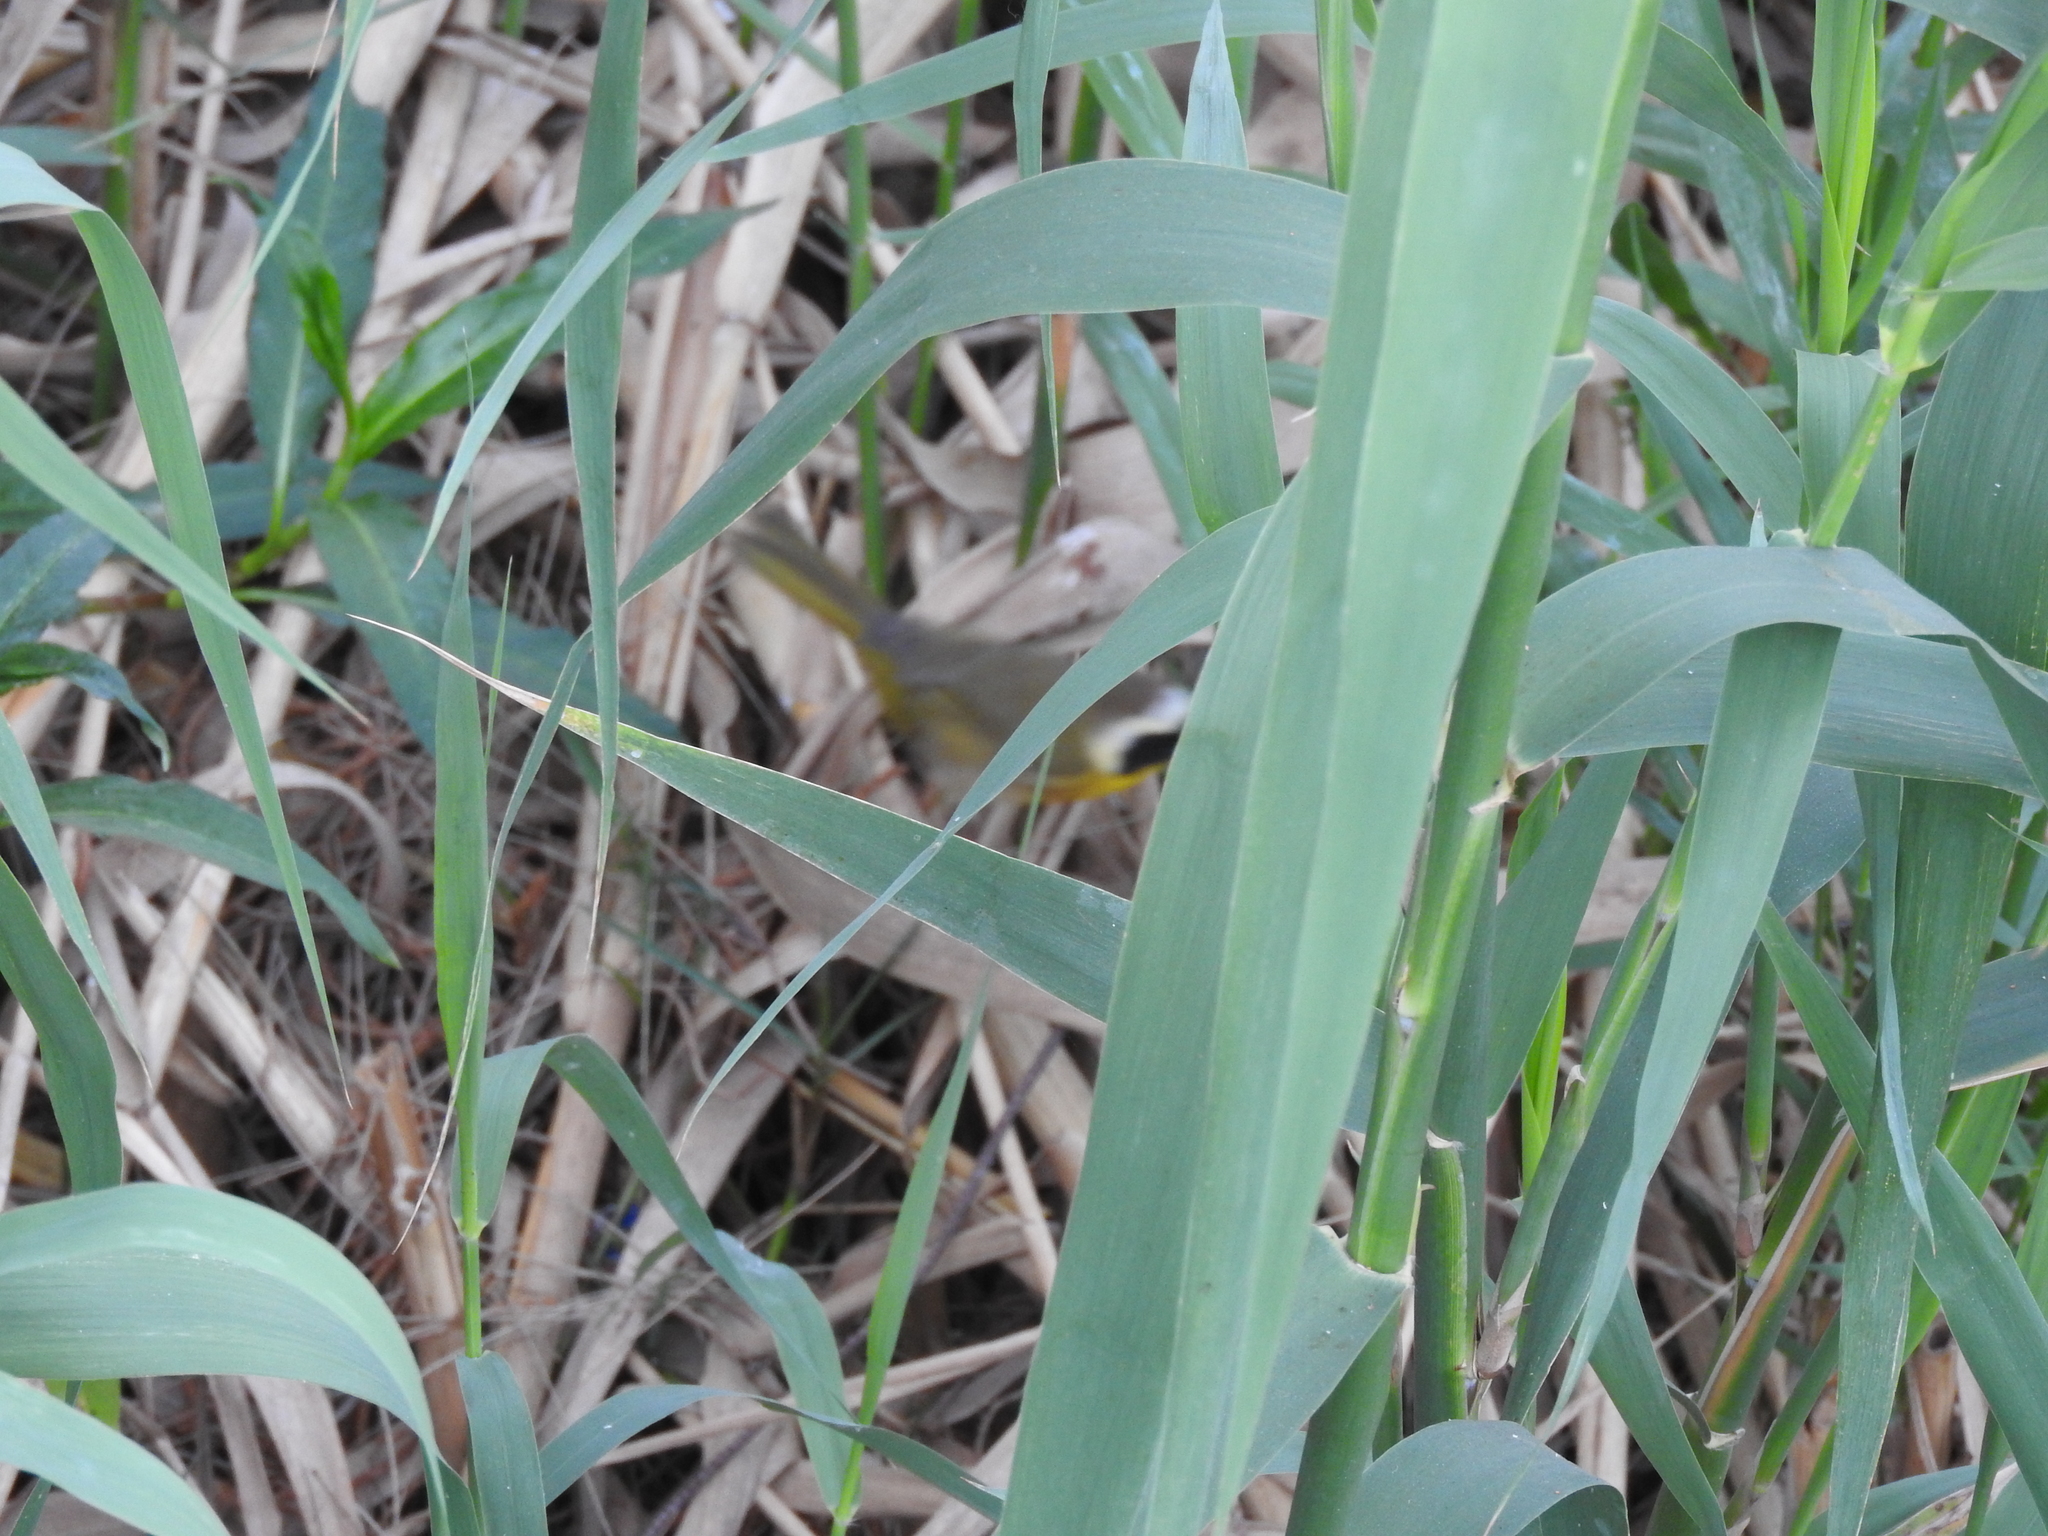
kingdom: Animalia
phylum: Chordata
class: Aves
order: Passeriformes
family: Parulidae
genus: Geothlypis
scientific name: Geothlypis trichas
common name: Common yellowthroat
